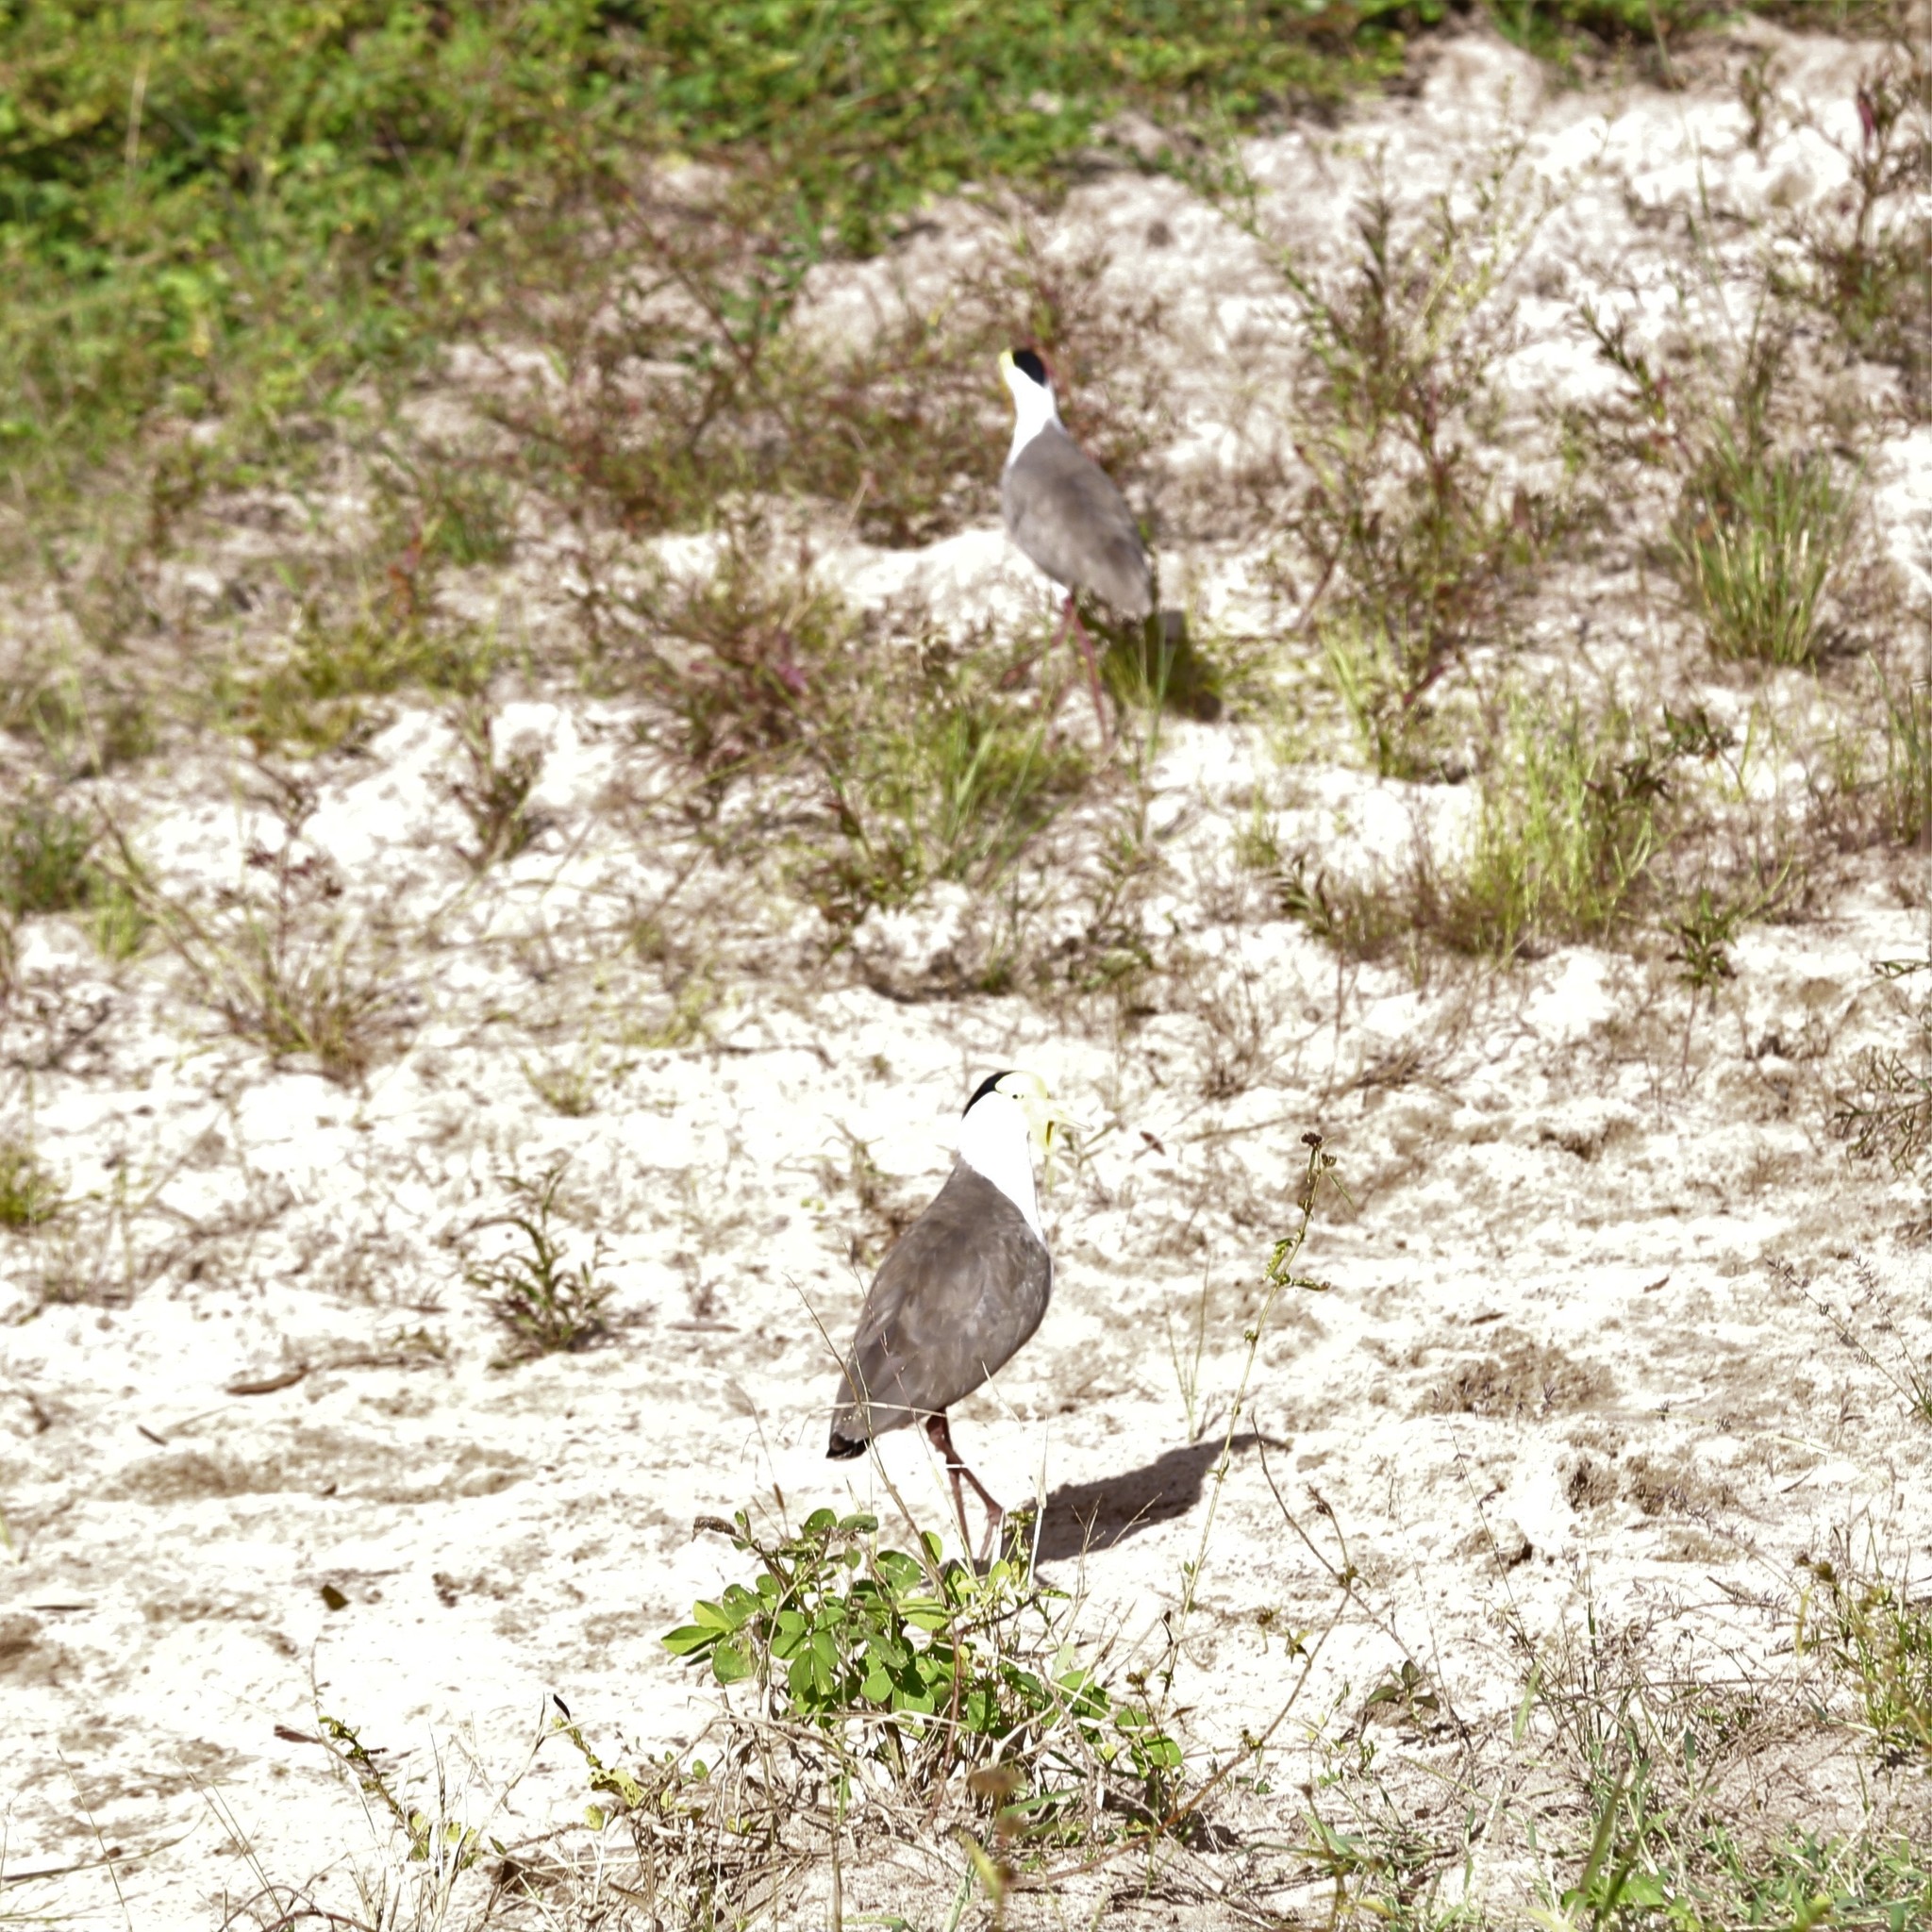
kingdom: Animalia
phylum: Chordata
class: Aves
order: Charadriiformes
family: Charadriidae
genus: Vanellus
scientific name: Vanellus miles
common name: Masked lapwing
